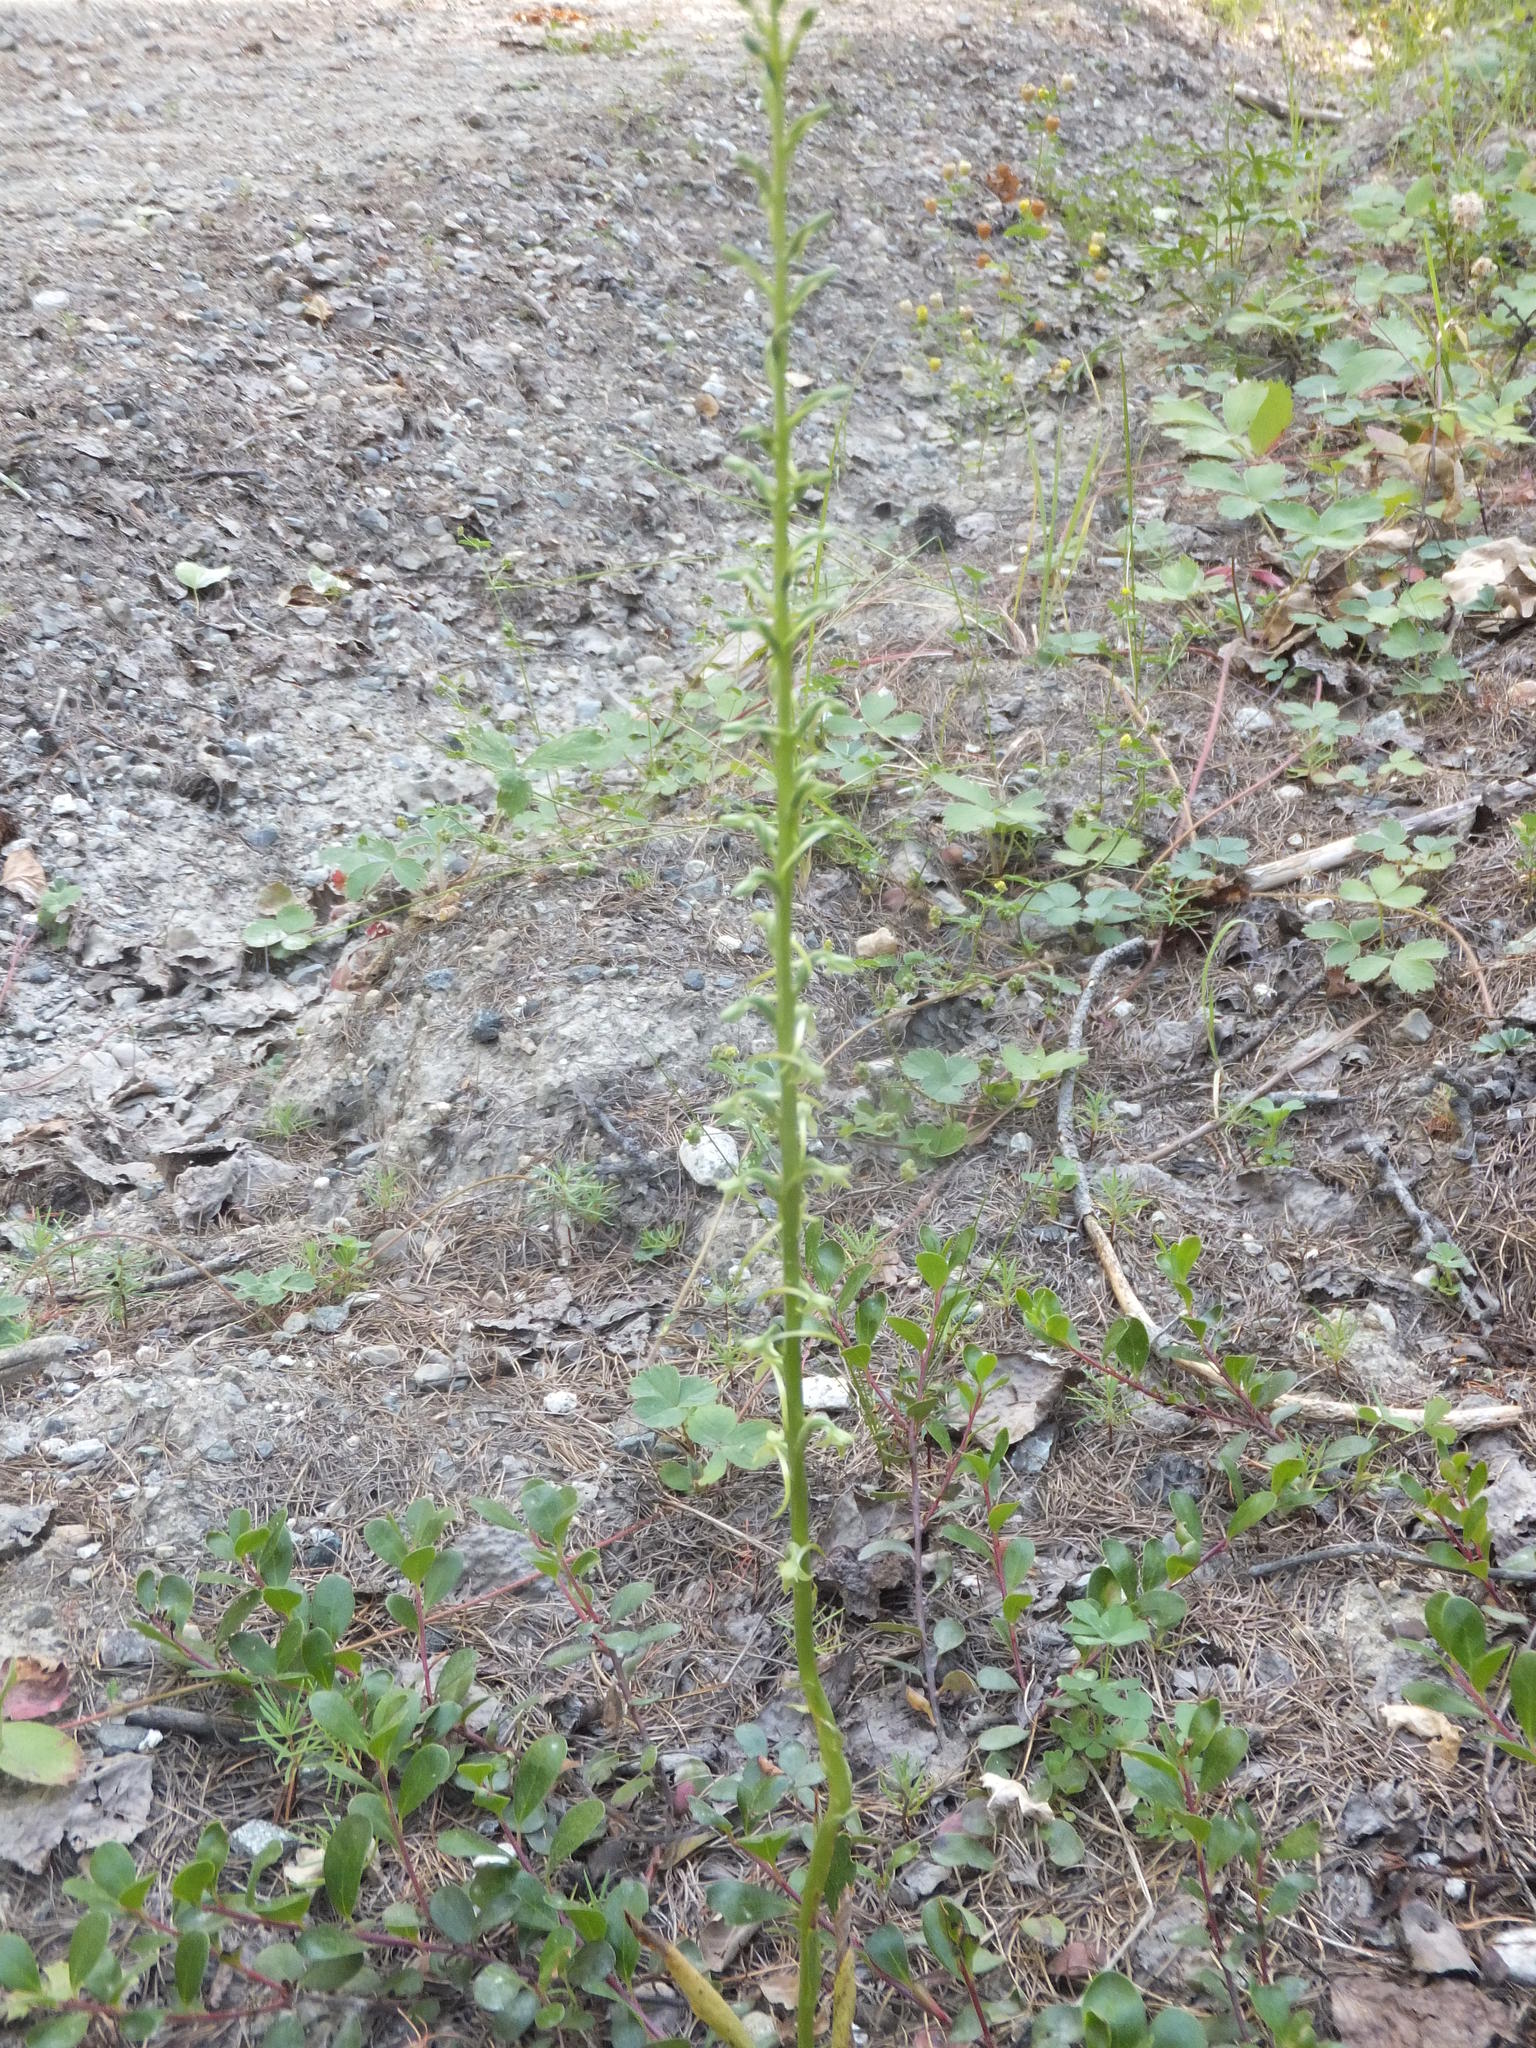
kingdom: Plantae
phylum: Tracheophyta
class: Liliopsida
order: Asparagales
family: Orchidaceae
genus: Platanthera
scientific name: Platanthera elongata
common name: Dense-flowered rein orchid
